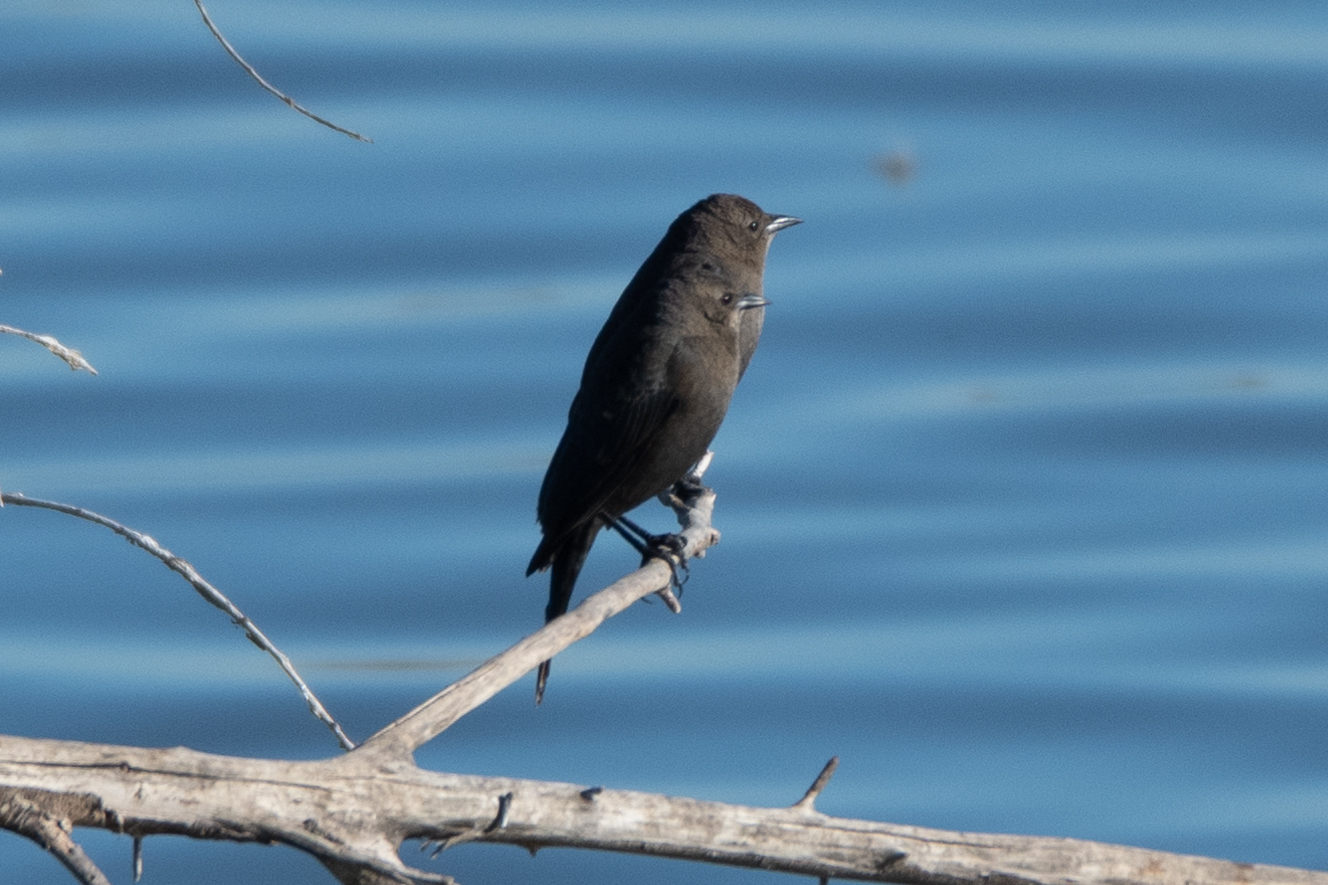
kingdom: Animalia
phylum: Chordata
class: Aves
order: Passeriformes
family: Icteridae
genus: Euphagus
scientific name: Euphagus cyanocephalus
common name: Brewer's blackbird
